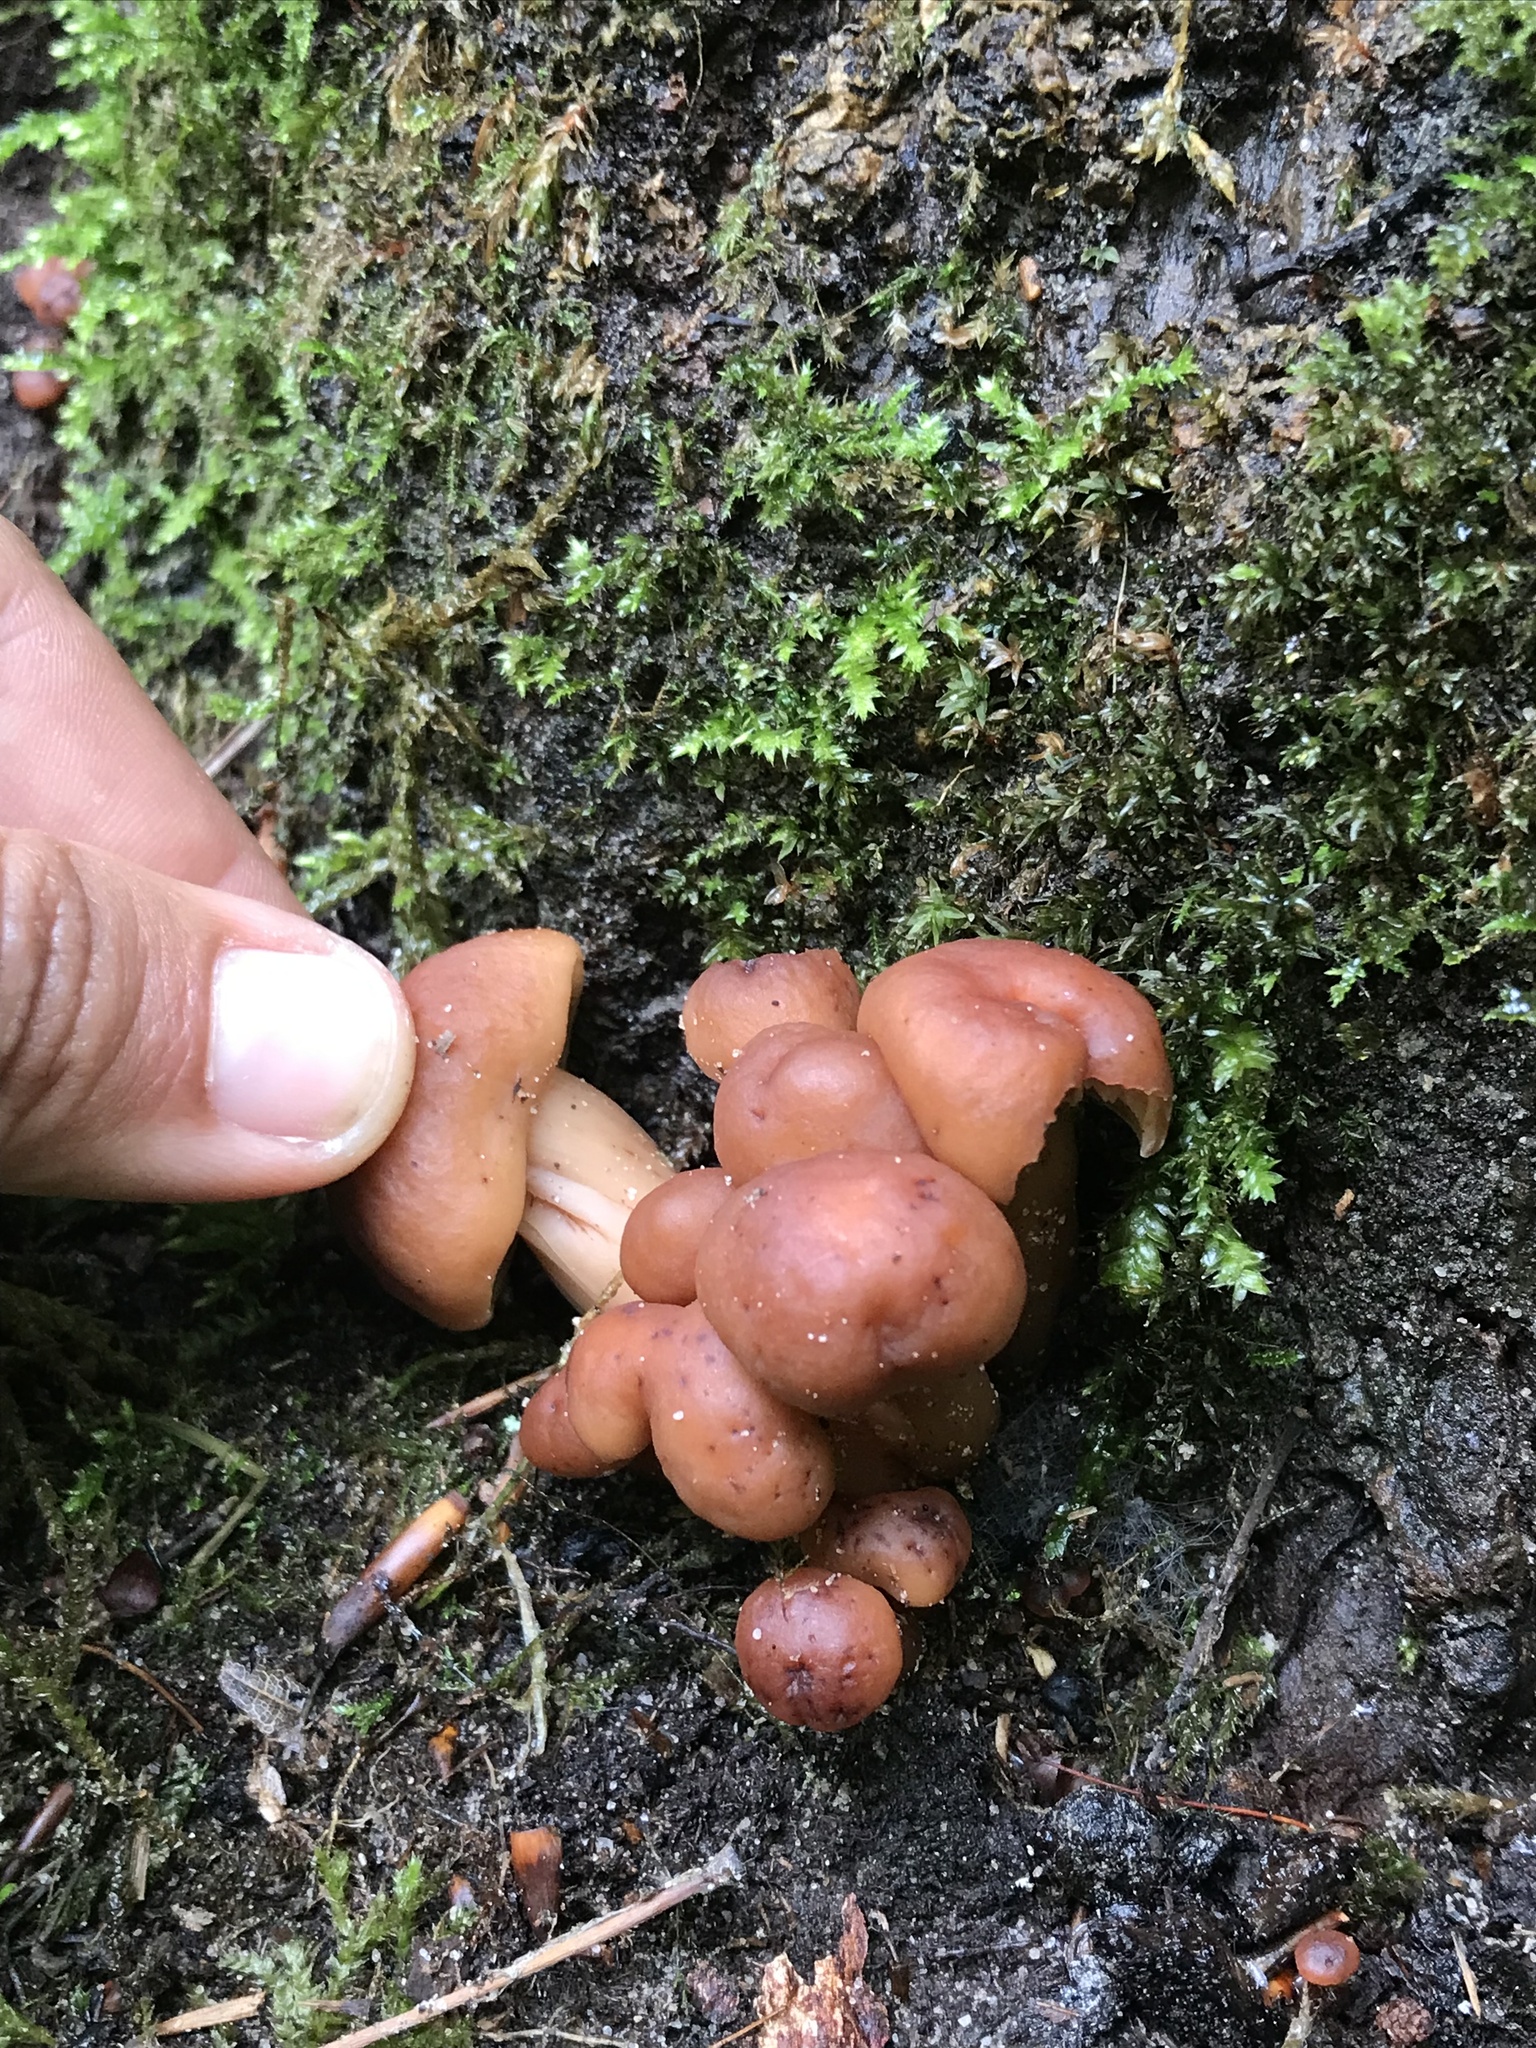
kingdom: Fungi
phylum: Basidiomycota
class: Agaricomycetes
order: Agaricales
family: Omphalotaceae
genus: Gymnopus
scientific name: Gymnopus fusipes
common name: Spindle shank
